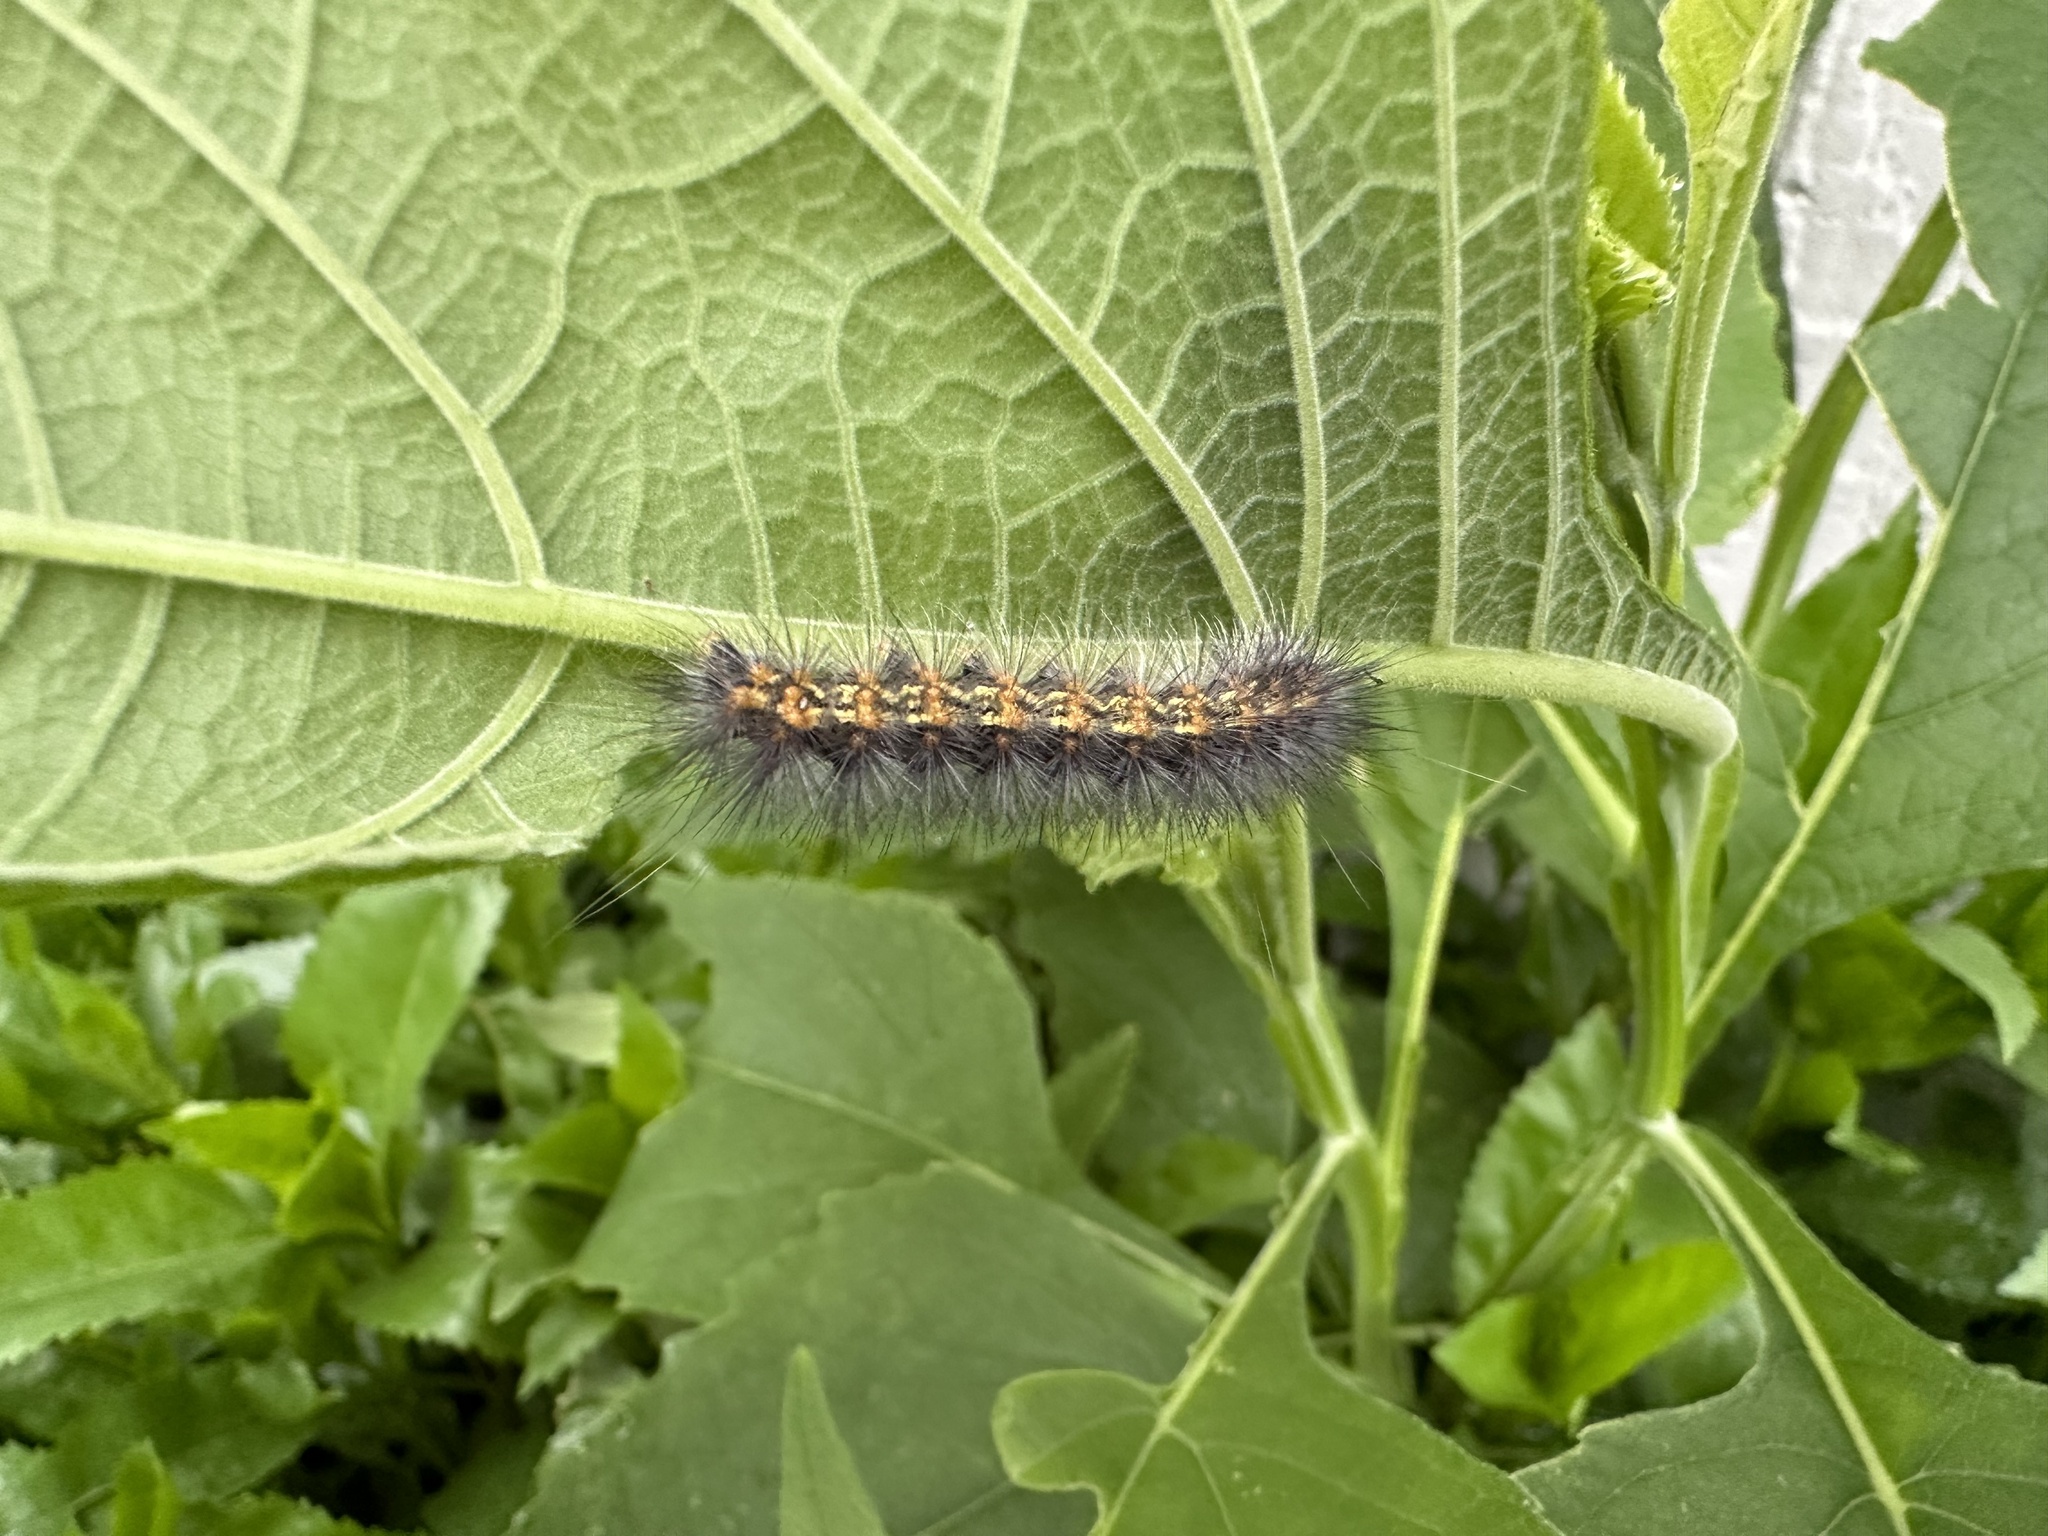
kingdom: Animalia
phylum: Arthropoda
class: Insecta
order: Lepidoptera
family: Erebidae
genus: Estigmene
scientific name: Estigmene acrea
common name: Salt marsh moth
